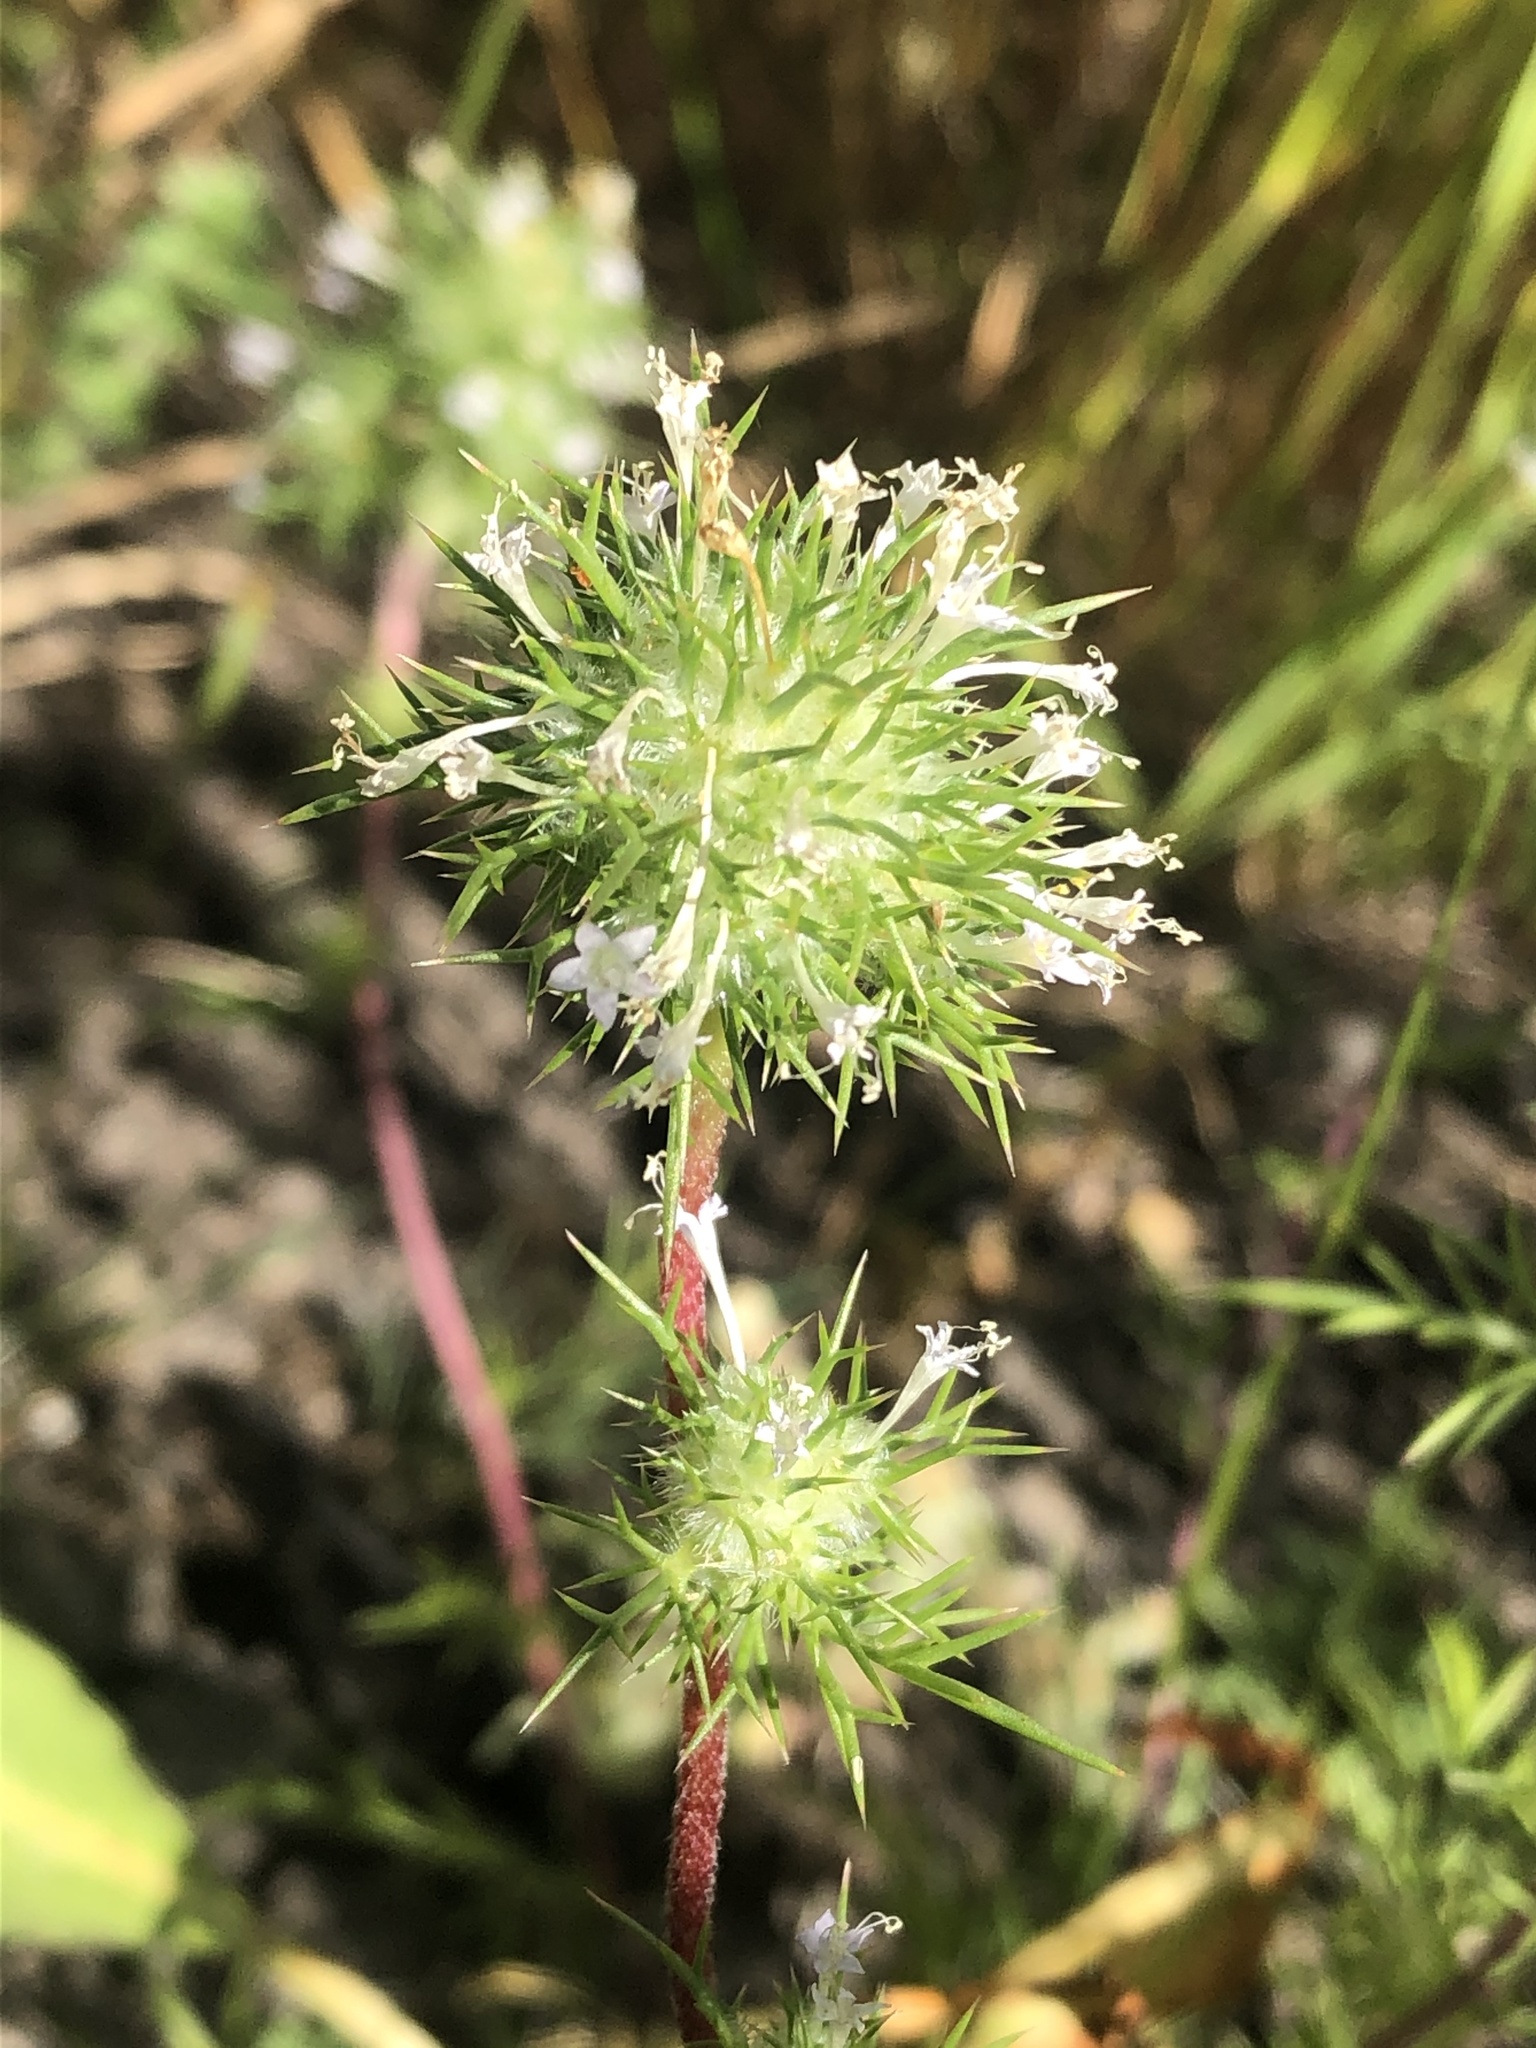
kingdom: Plantae
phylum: Tracheophyta
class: Magnoliopsida
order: Ericales
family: Polemoniaceae
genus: Navarretia
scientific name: Navarretia intertexta
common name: Needle-leaved navarretia
